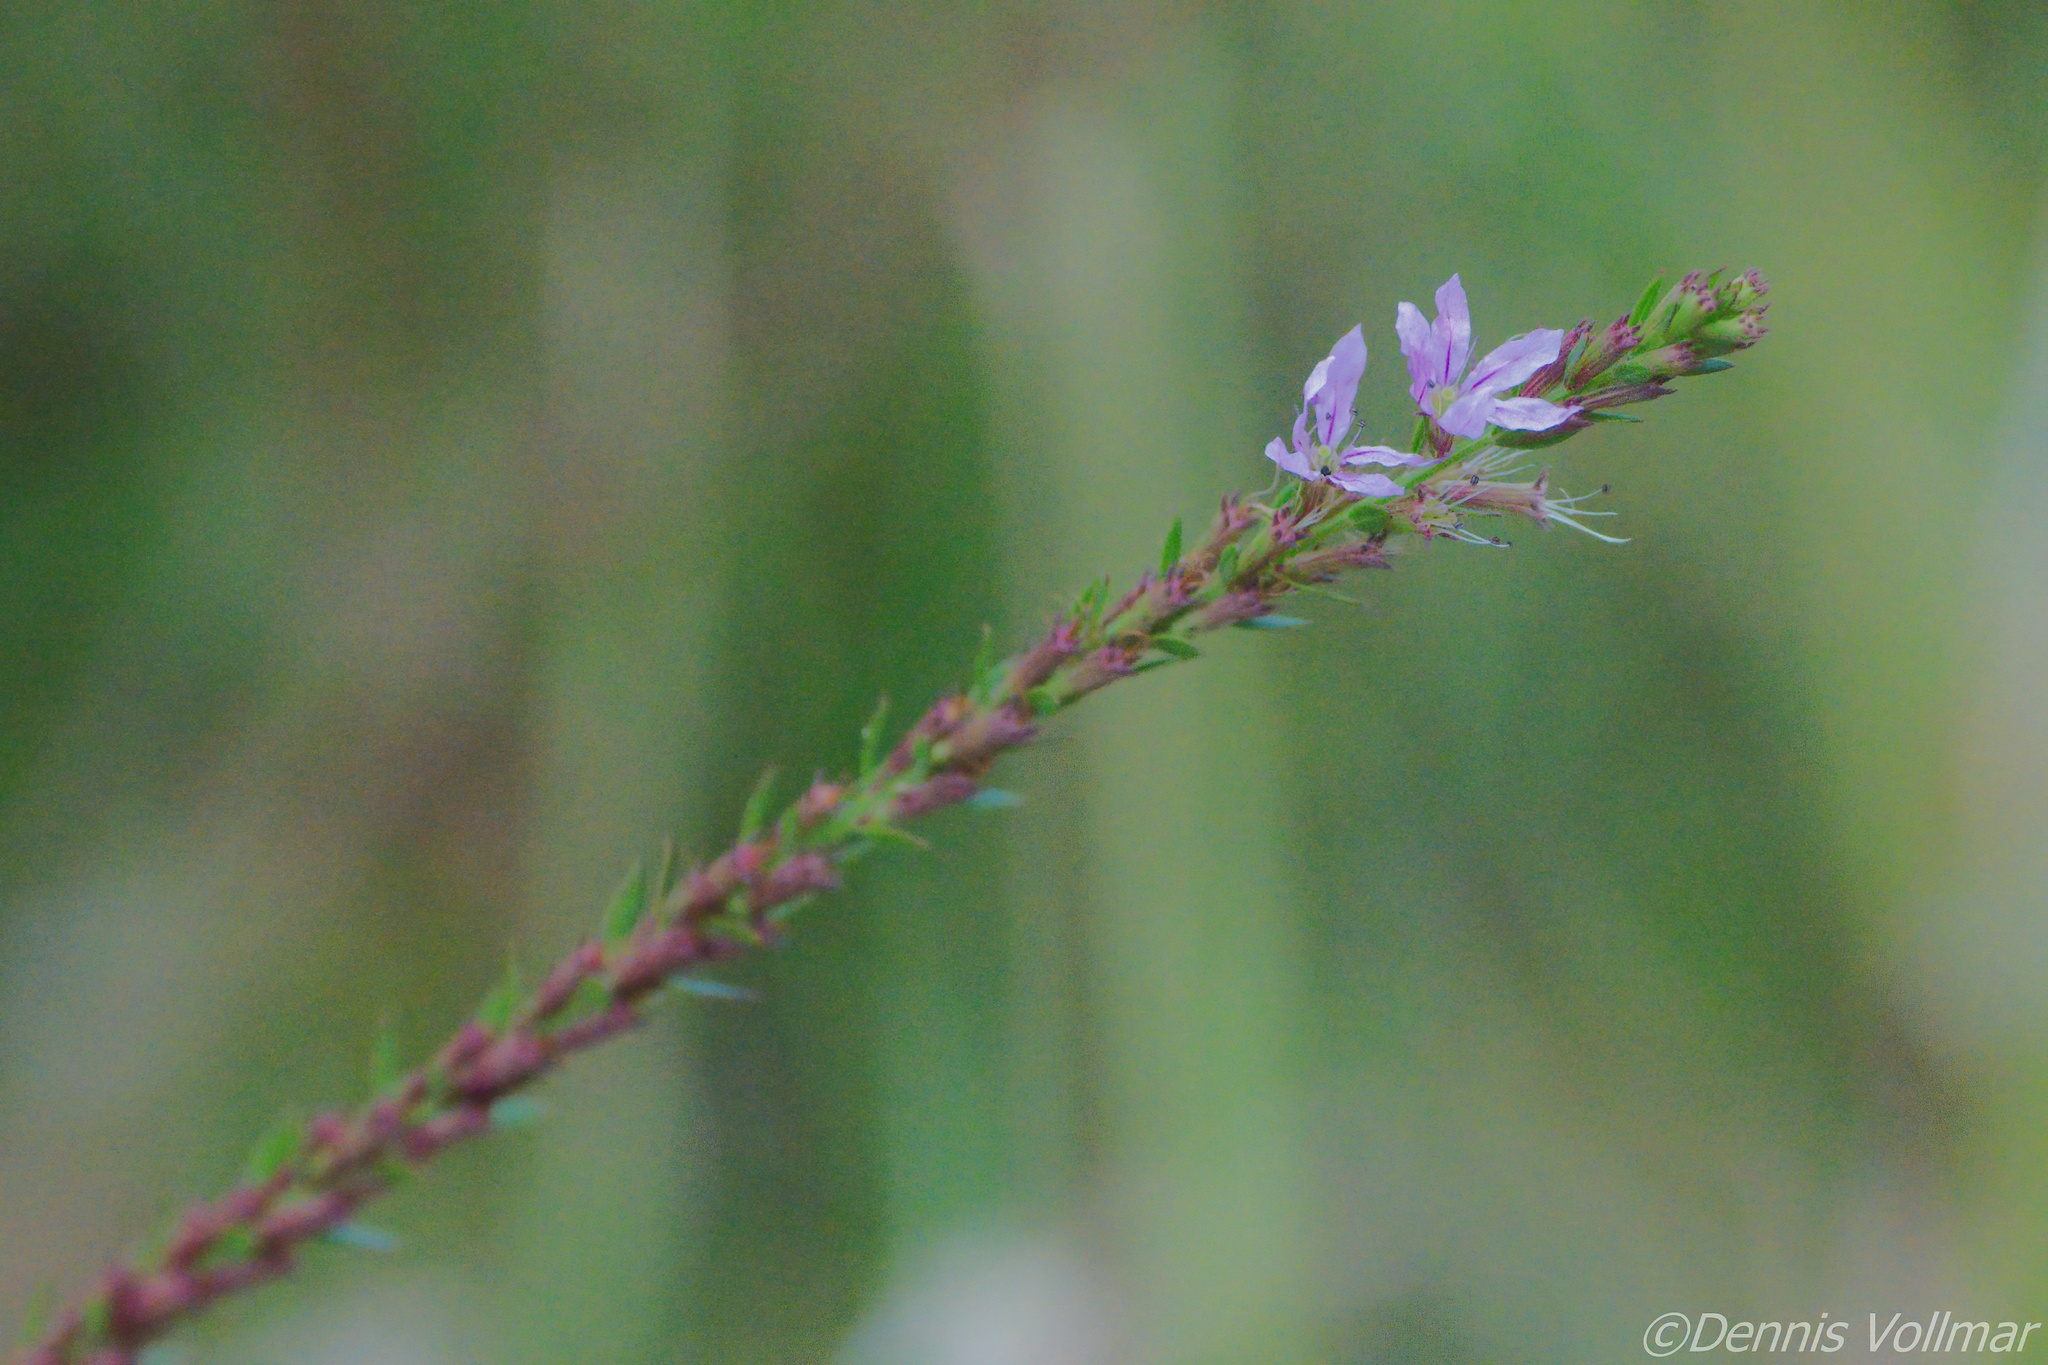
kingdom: Plantae
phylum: Tracheophyta
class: Magnoliopsida
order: Myrtales
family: Lythraceae
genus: Lythrum
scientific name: Lythrum alatum
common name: Winged loosestrife
